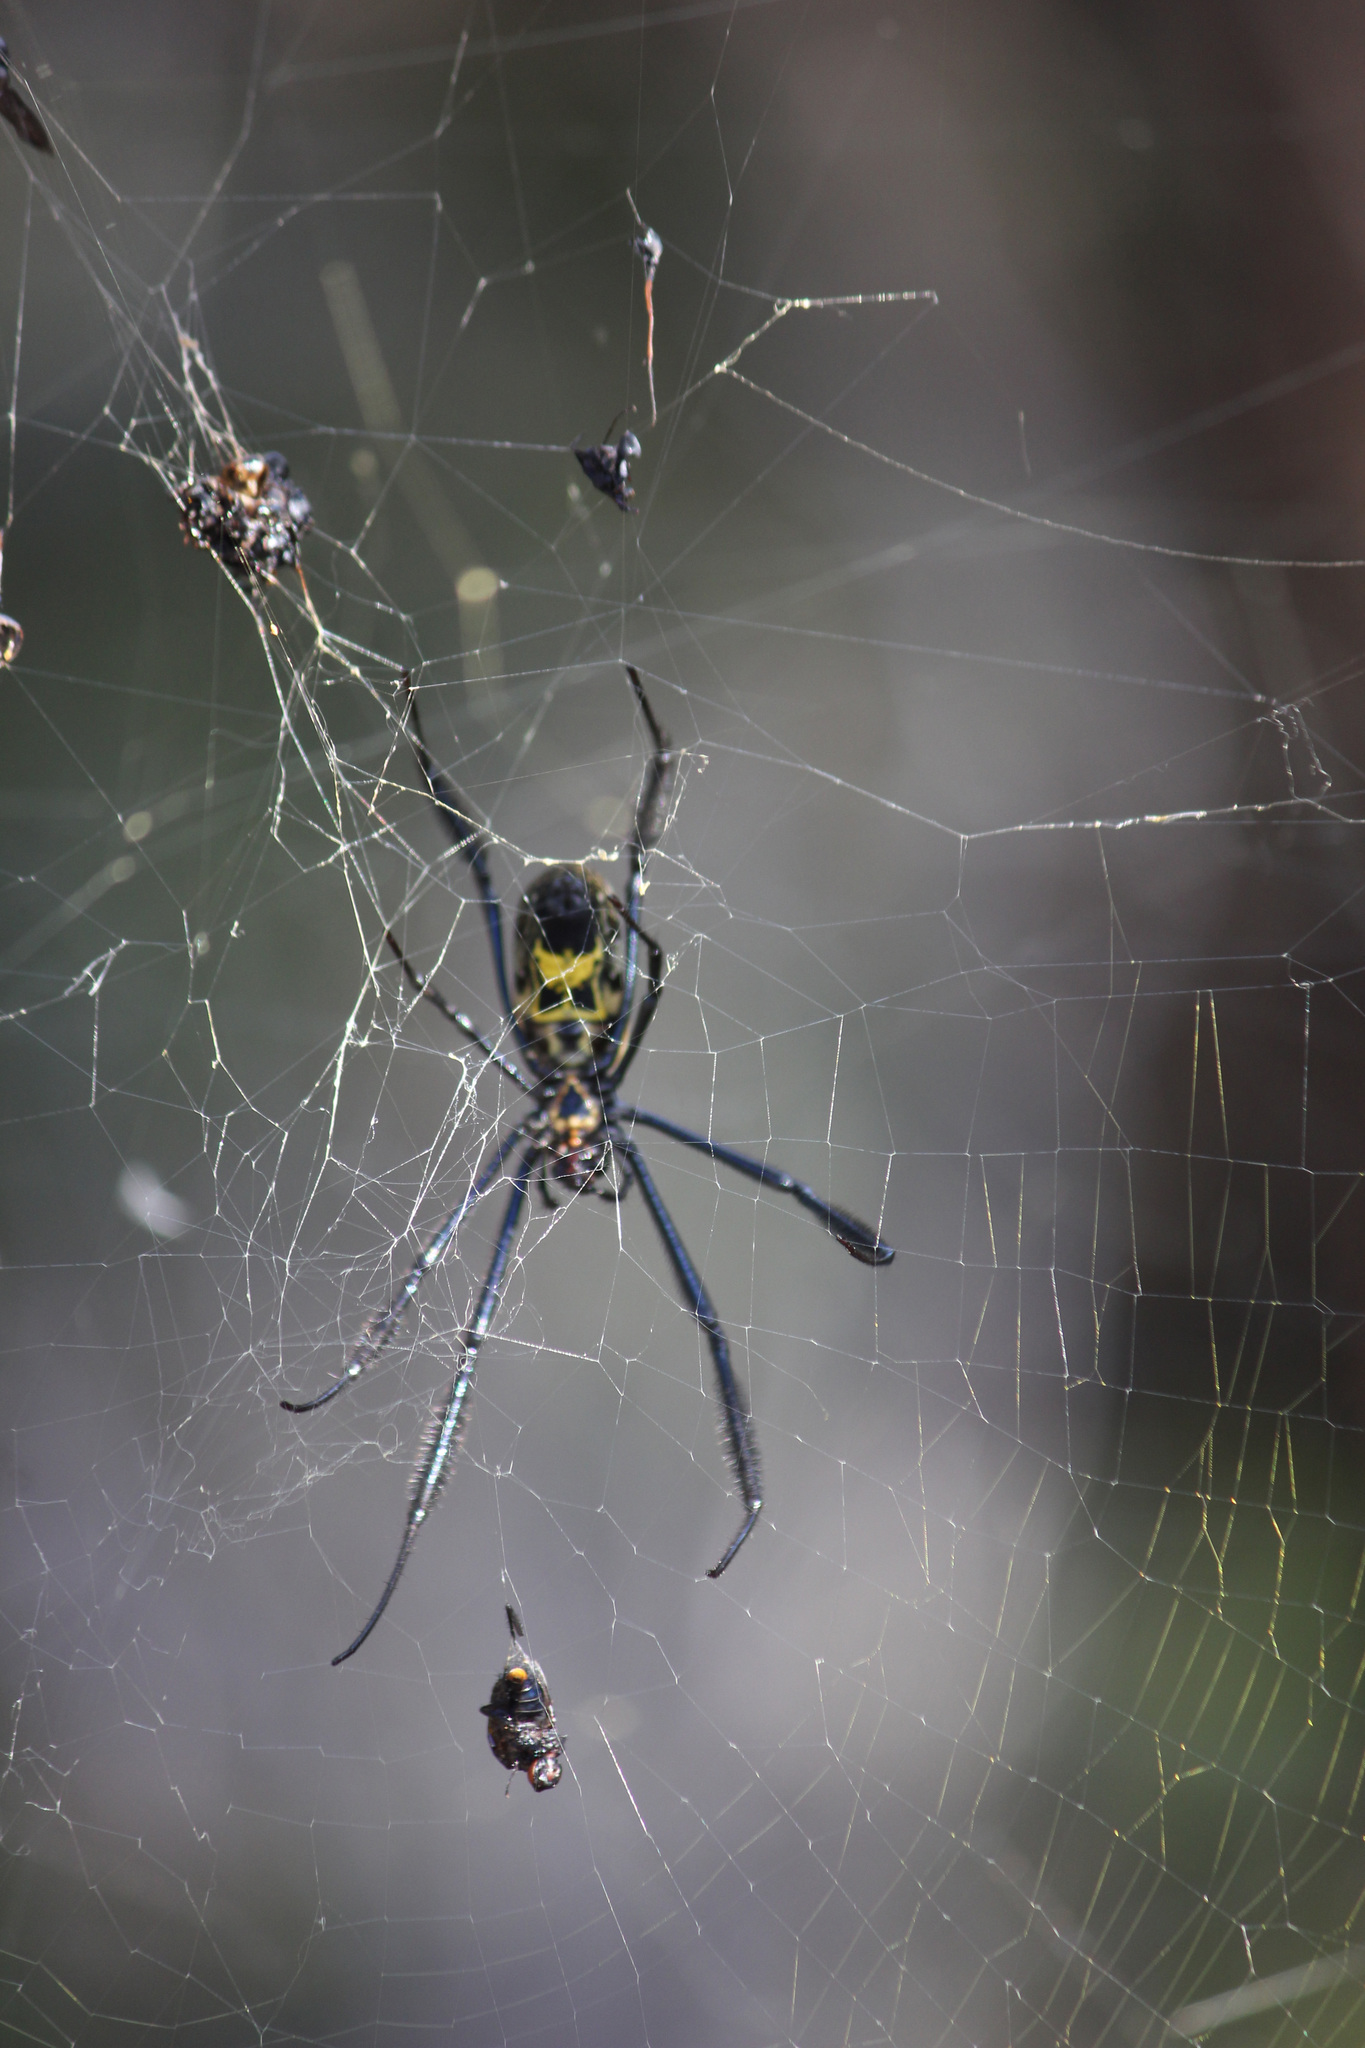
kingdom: Animalia
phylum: Arthropoda
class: Arachnida
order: Araneae
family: Araneidae
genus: Trichonephila
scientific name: Trichonephila fenestrata
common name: Hairy golden orb weaver
